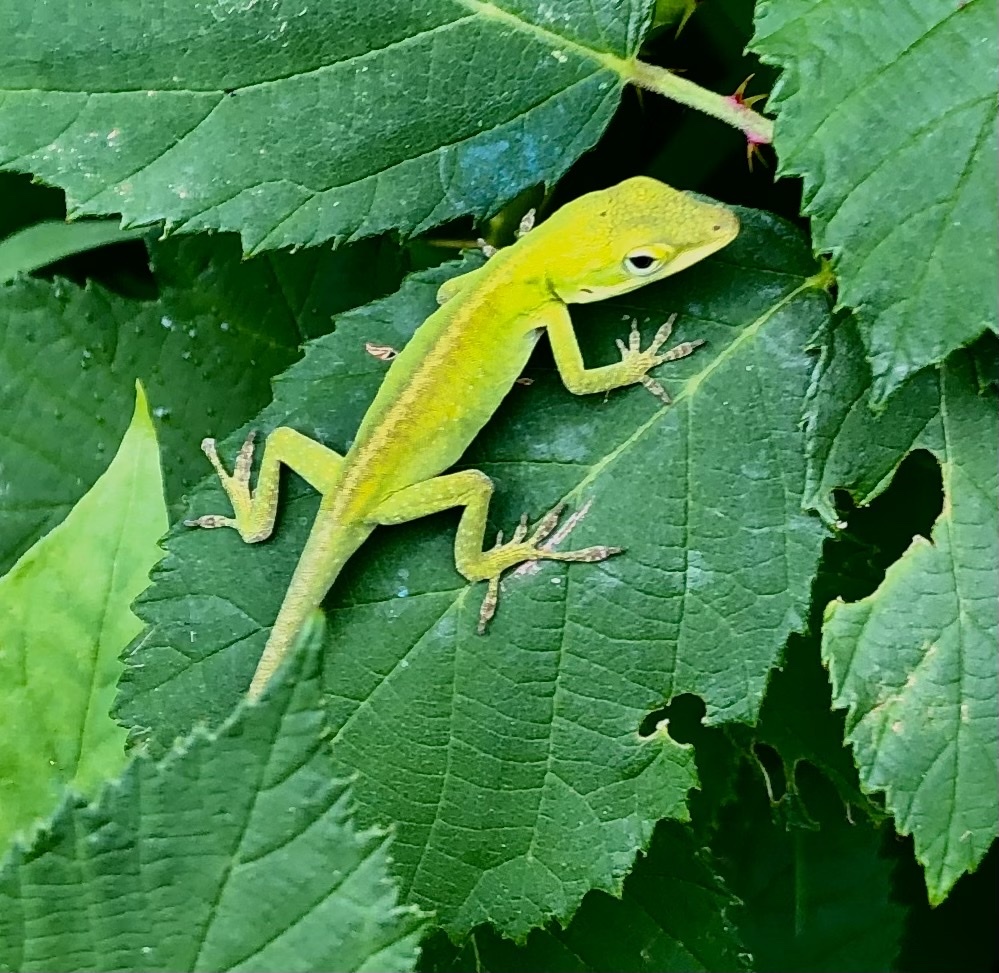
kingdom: Animalia
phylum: Chordata
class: Squamata
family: Dactyloidae
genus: Anolis
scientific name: Anolis carolinensis
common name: Green anole
